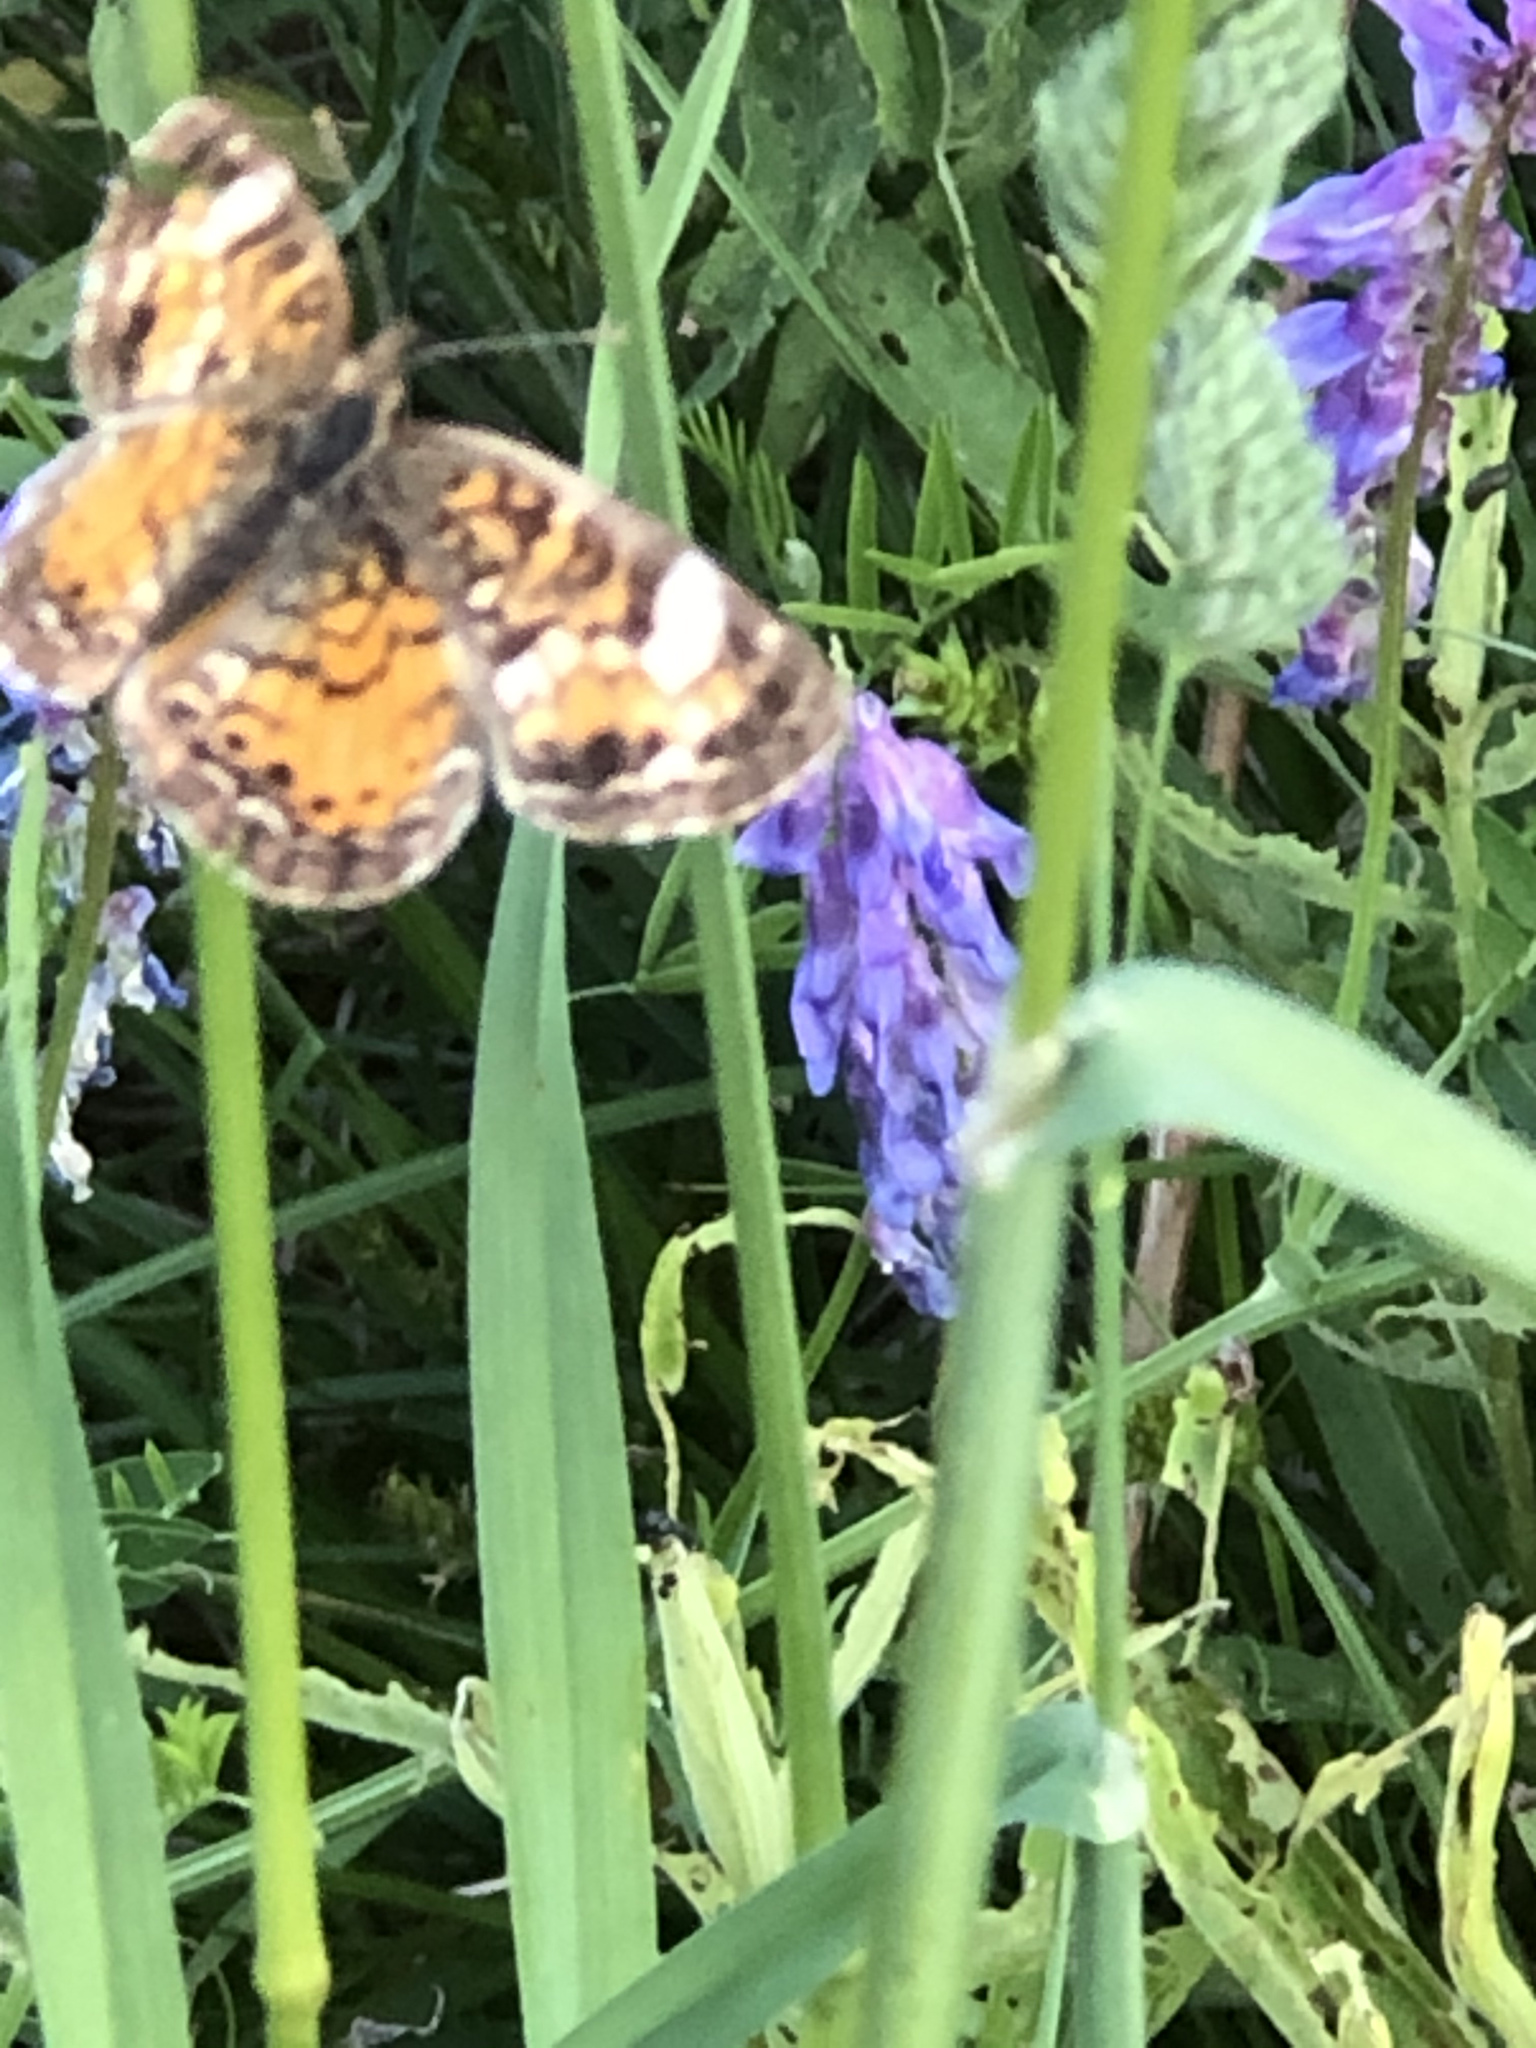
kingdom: Animalia
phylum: Arthropoda
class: Insecta
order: Lepidoptera
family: Nymphalidae
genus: Phyciodes
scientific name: Phyciodes tharos
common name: Pearl crescent
